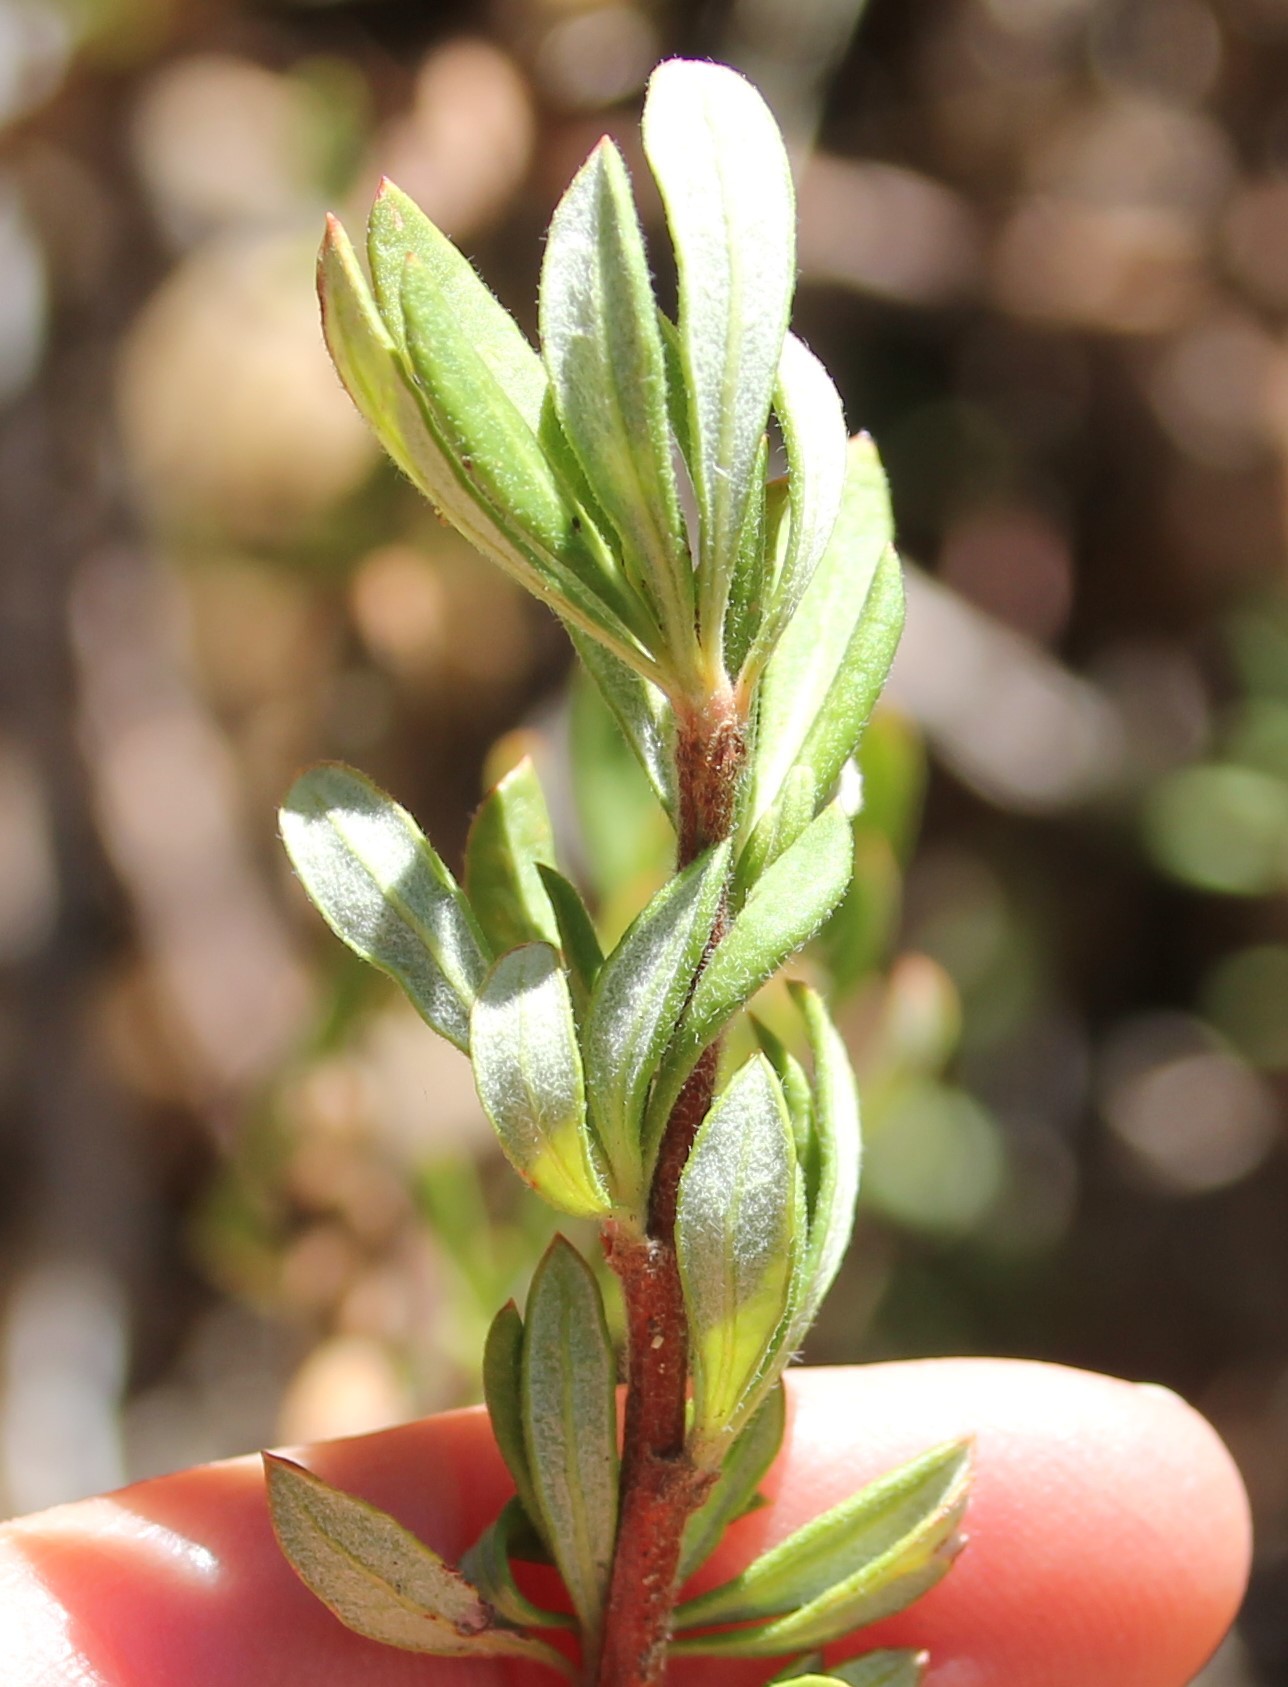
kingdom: Plantae
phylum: Tracheophyta
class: Magnoliopsida
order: Caryophyllales
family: Polygonaceae
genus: Eriogonum
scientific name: Eriogonum fasciculatum
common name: California wild buckwheat
